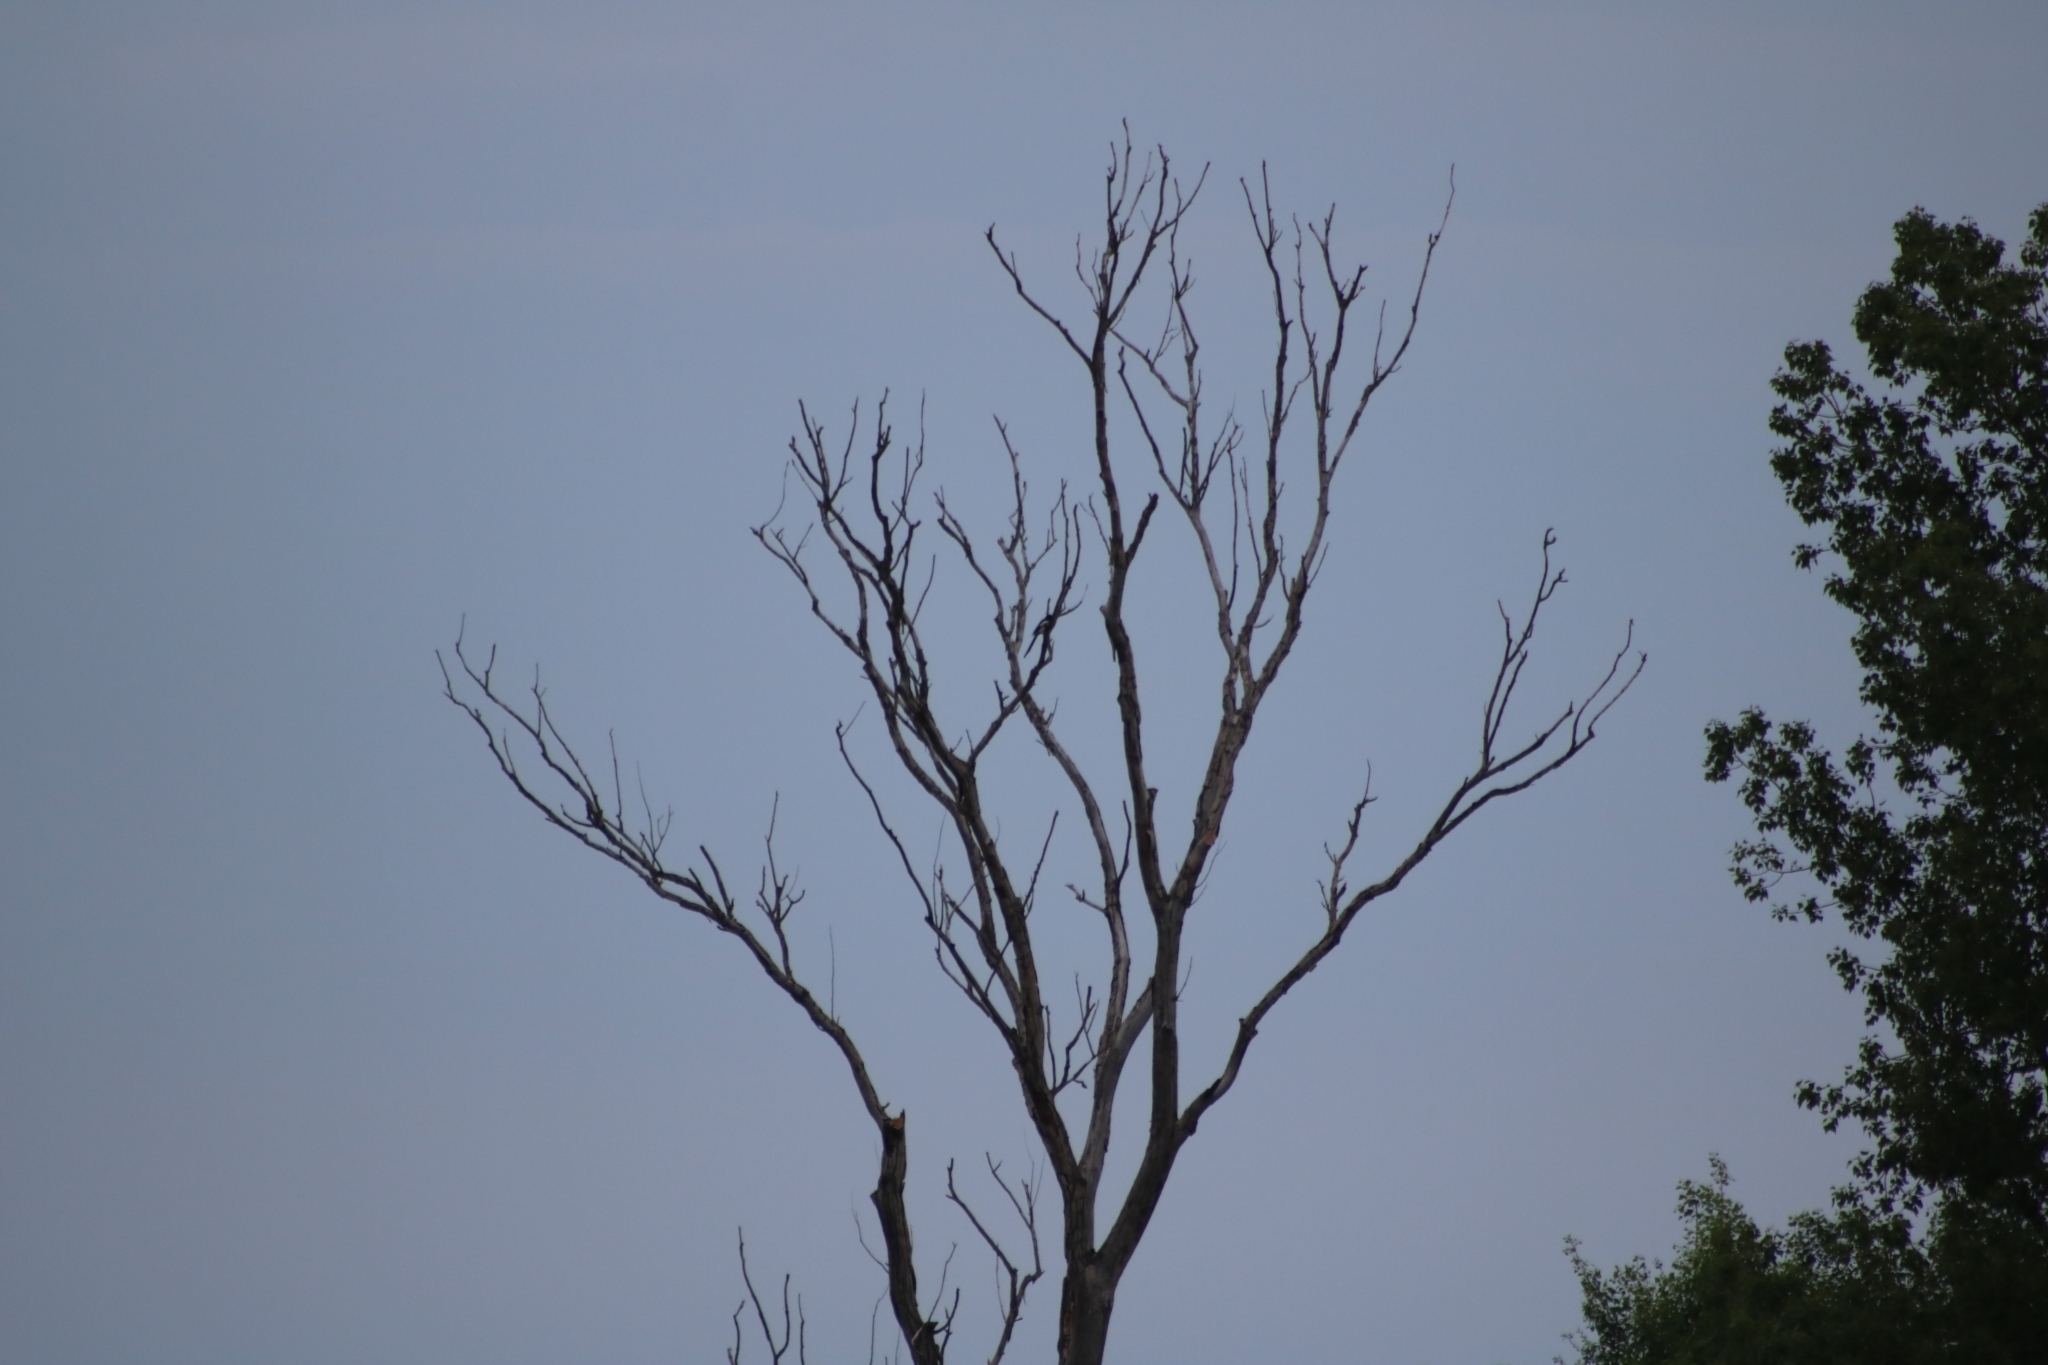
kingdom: Animalia
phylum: Chordata
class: Aves
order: Passeriformes
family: Corvidae
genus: Pica
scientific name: Pica pica
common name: Eurasian magpie
